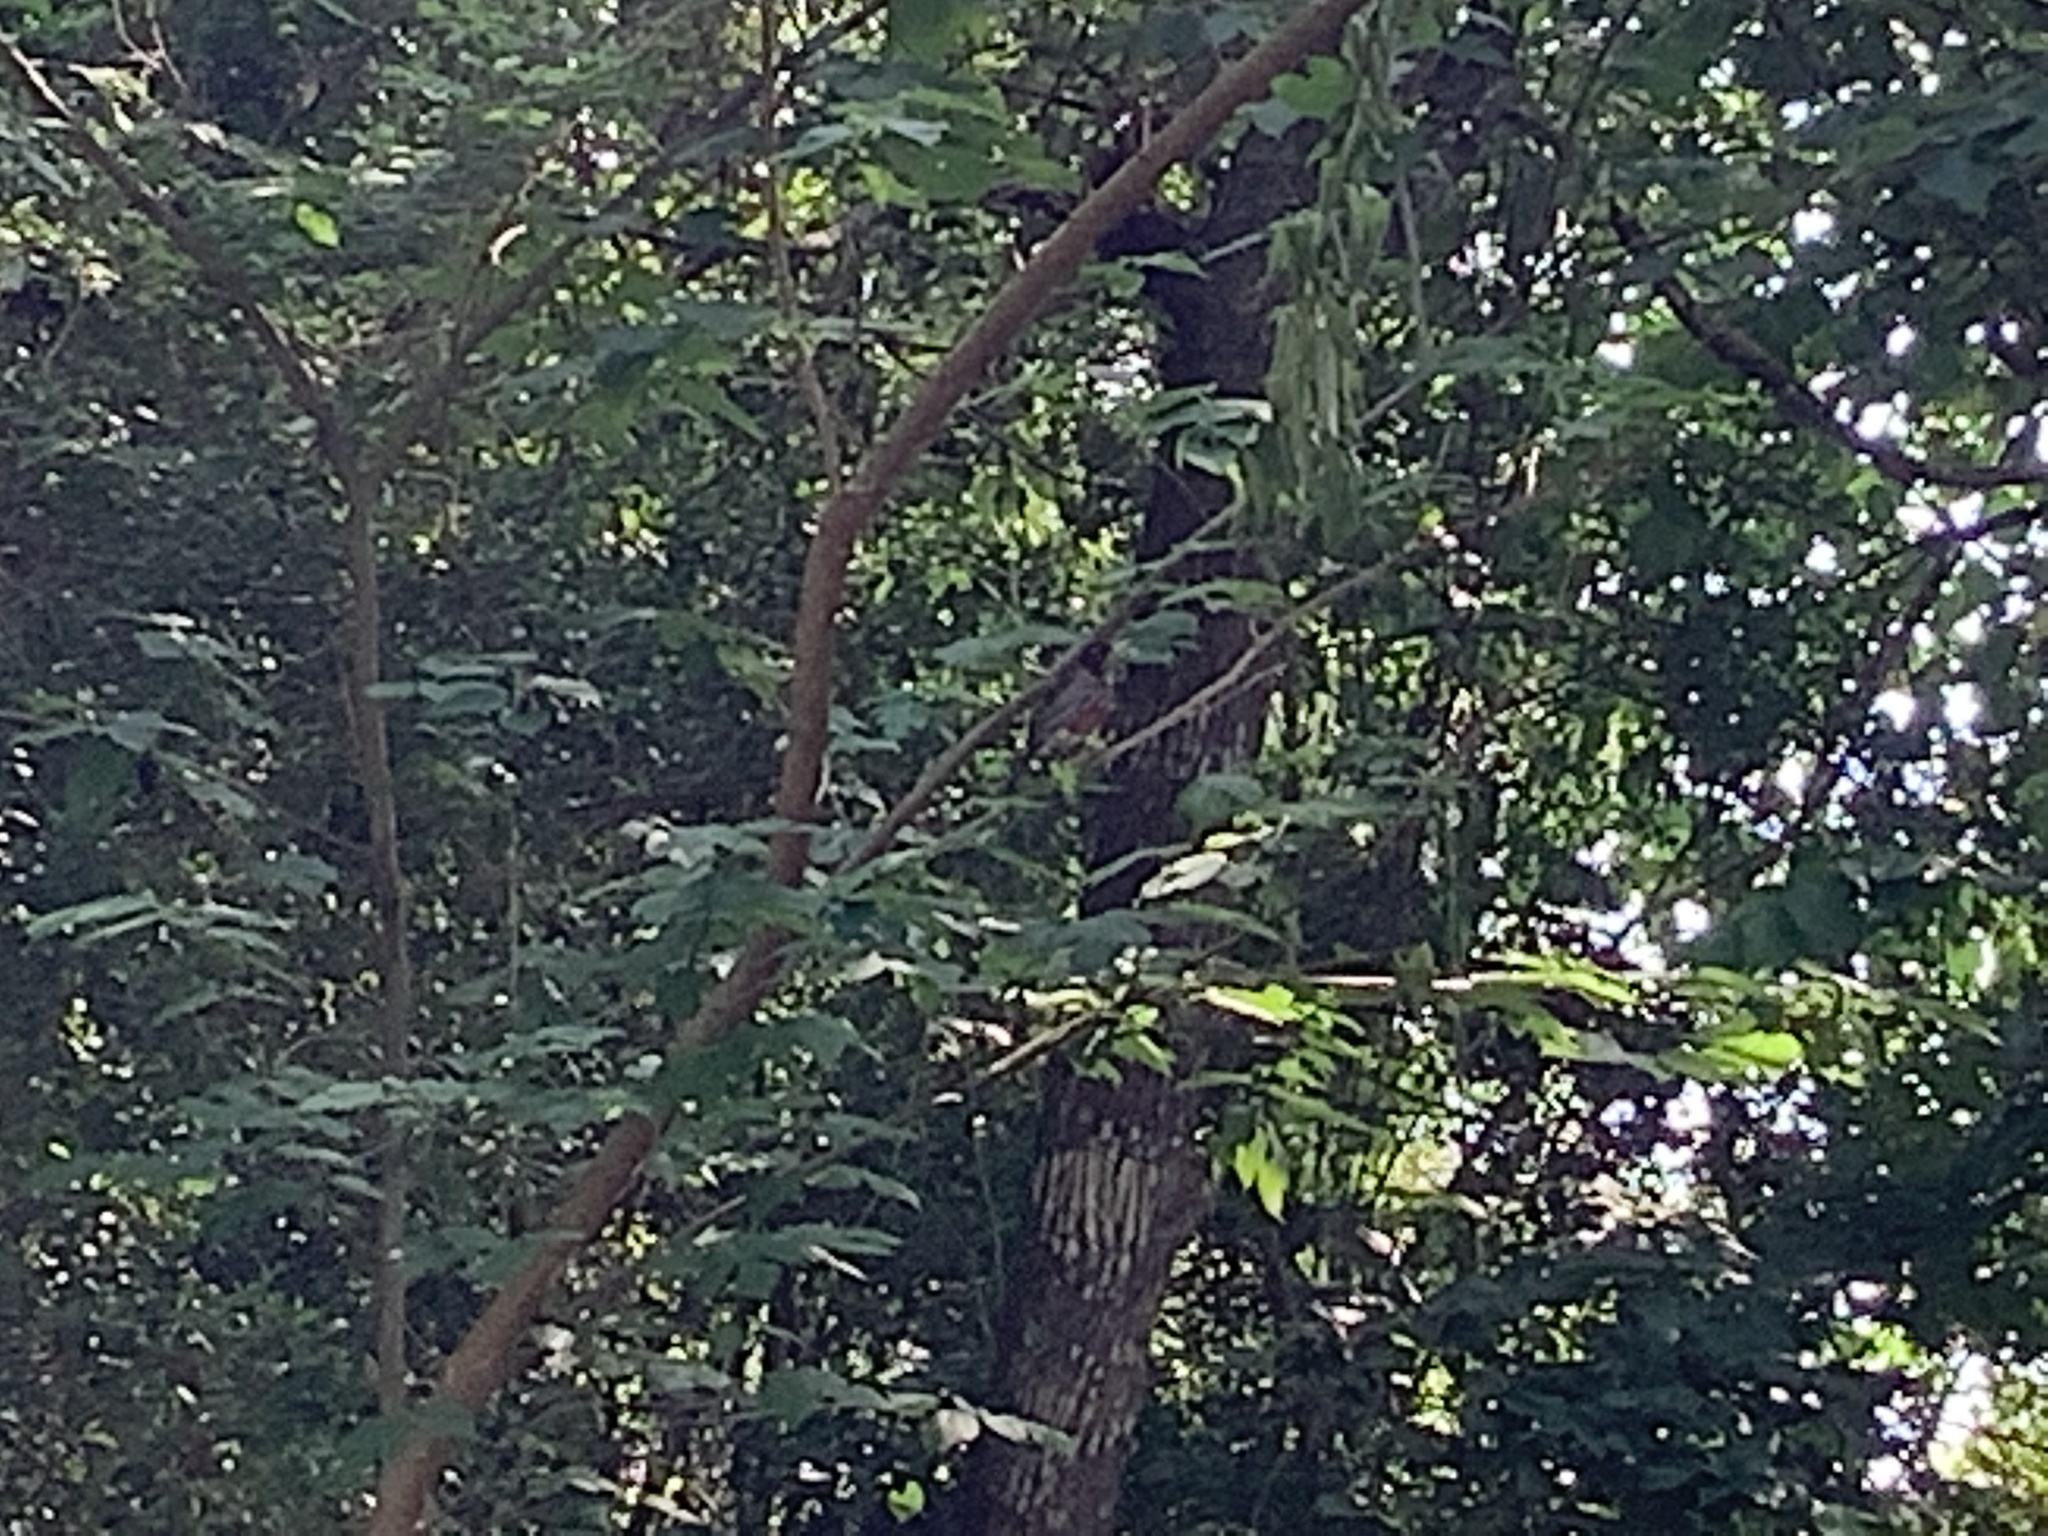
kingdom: Animalia
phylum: Chordata
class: Aves
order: Passeriformes
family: Turdidae
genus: Turdus
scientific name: Turdus migratorius
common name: American robin
